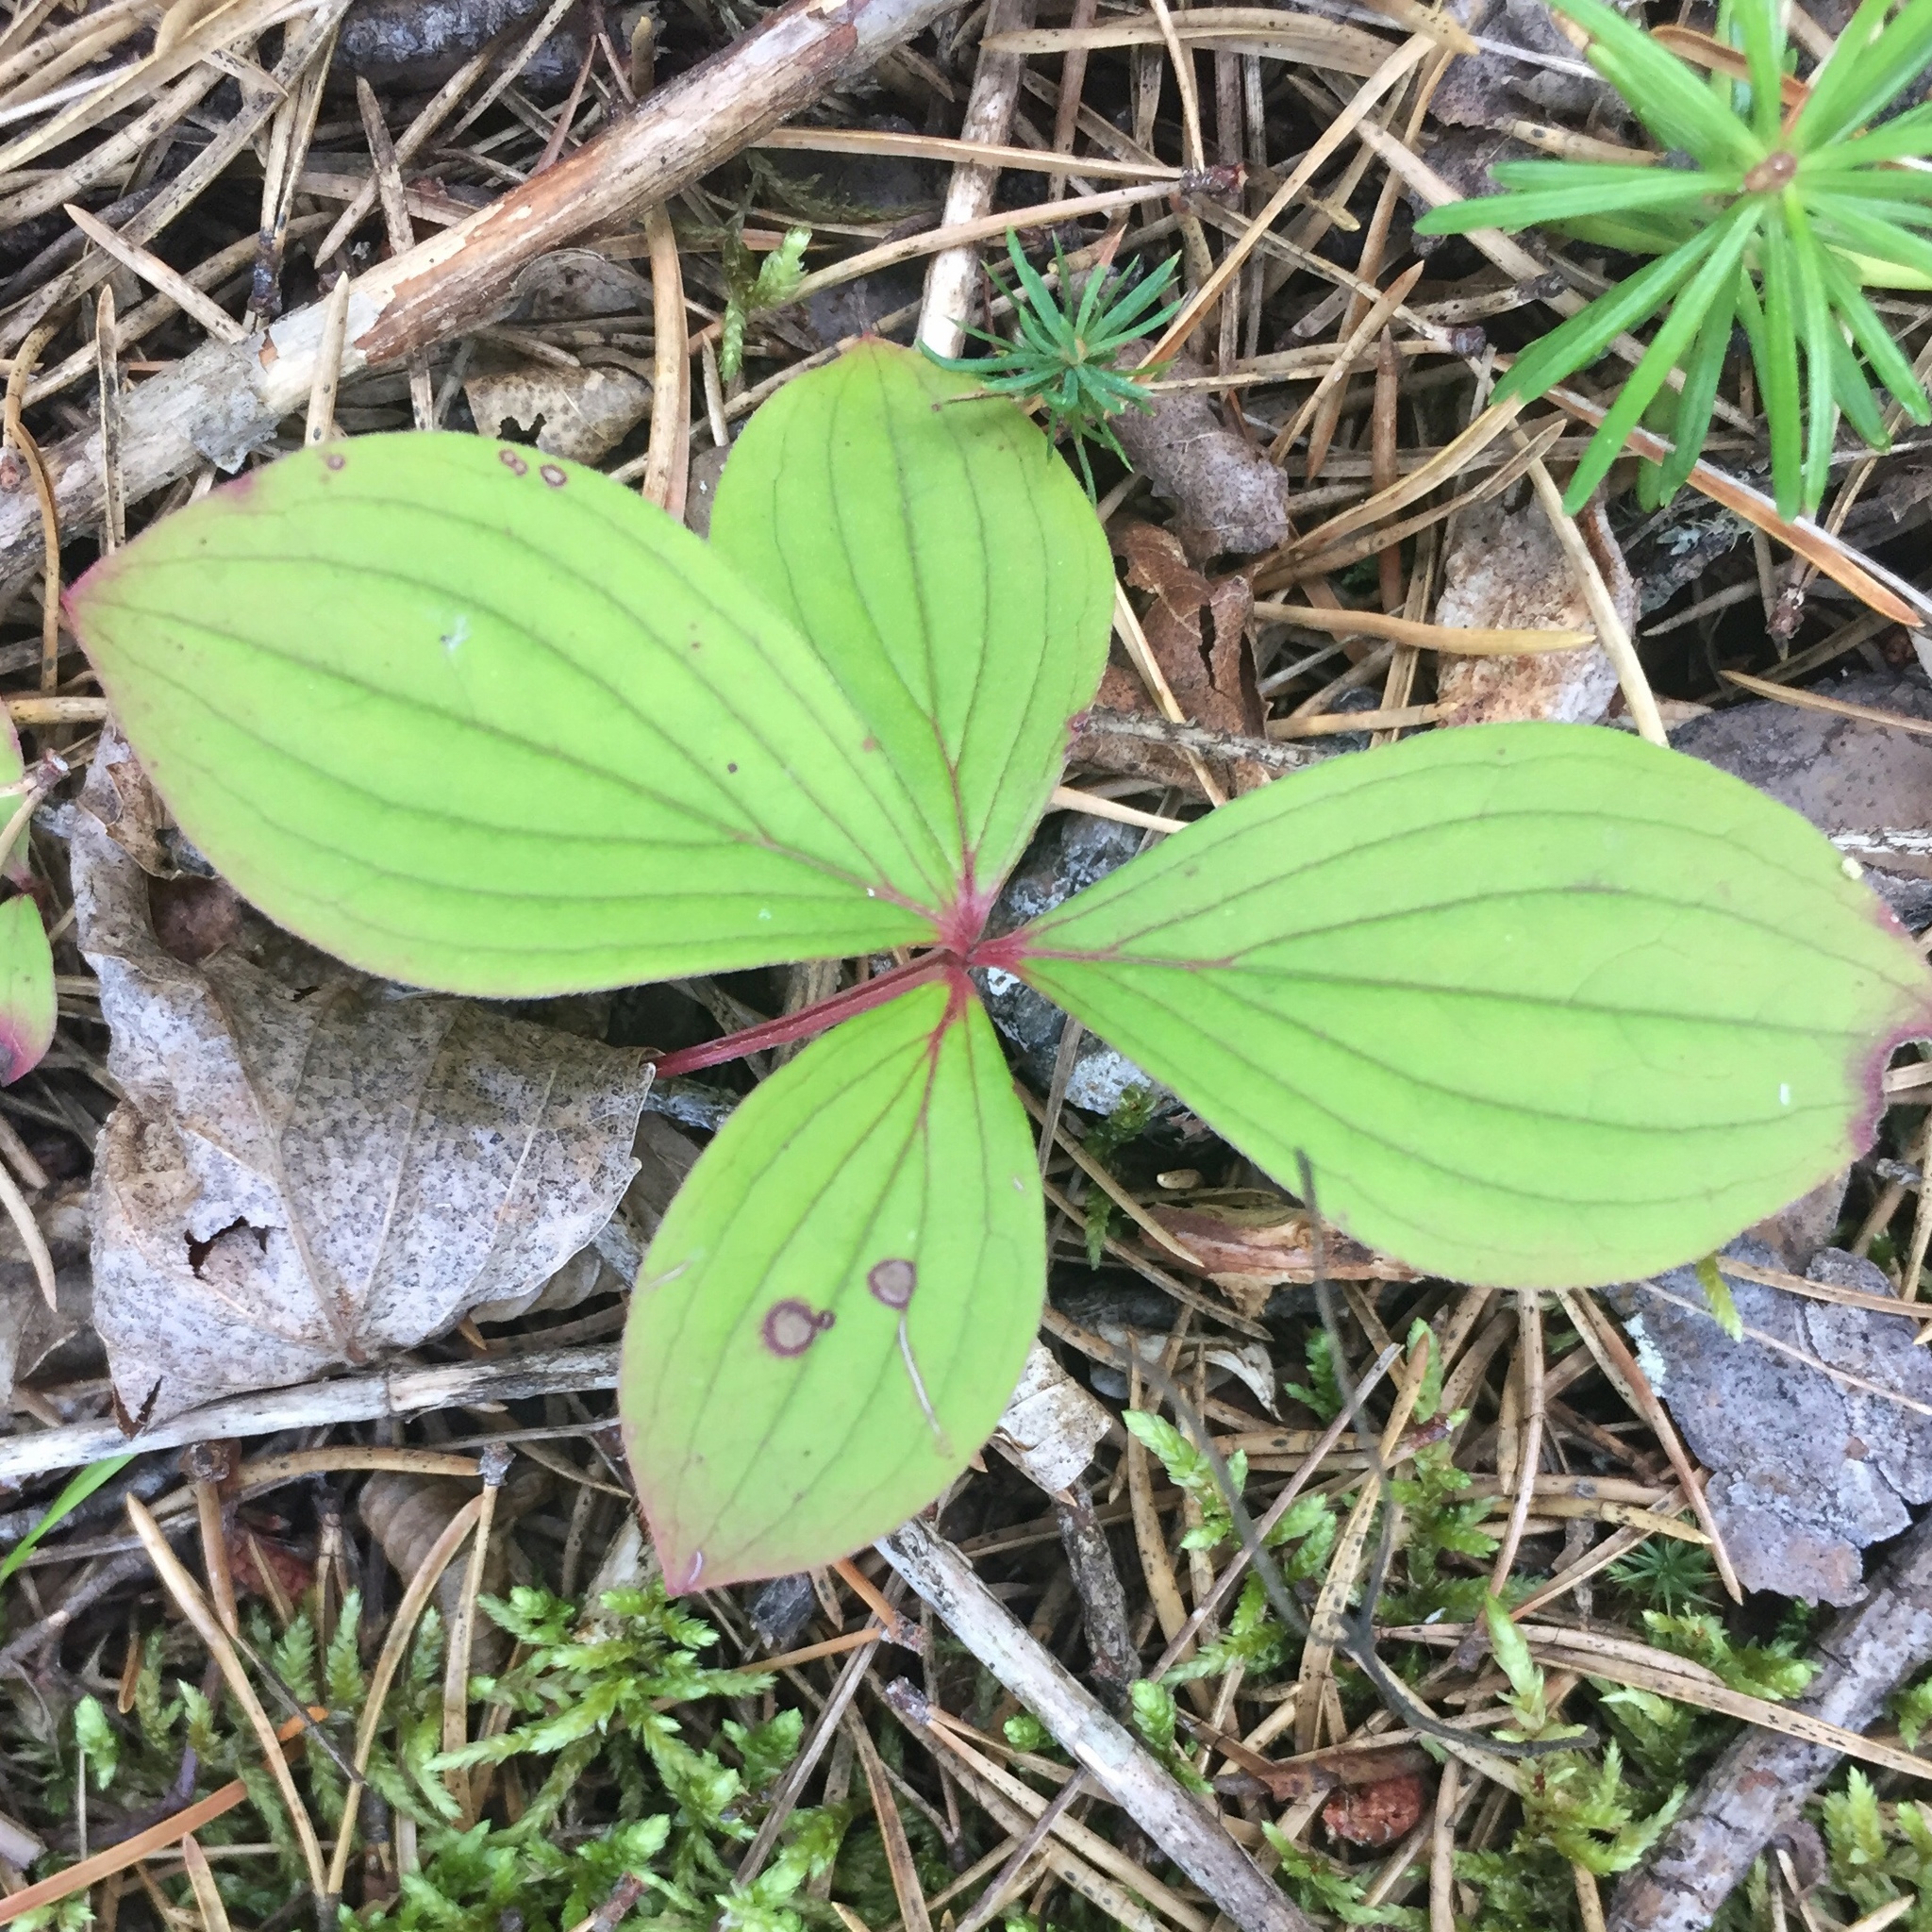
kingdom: Plantae
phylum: Tracheophyta
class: Magnoliopsida
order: Cornales
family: Cornaceae
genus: Cornus
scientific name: Cornus canadensis
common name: Creeping dogwood
